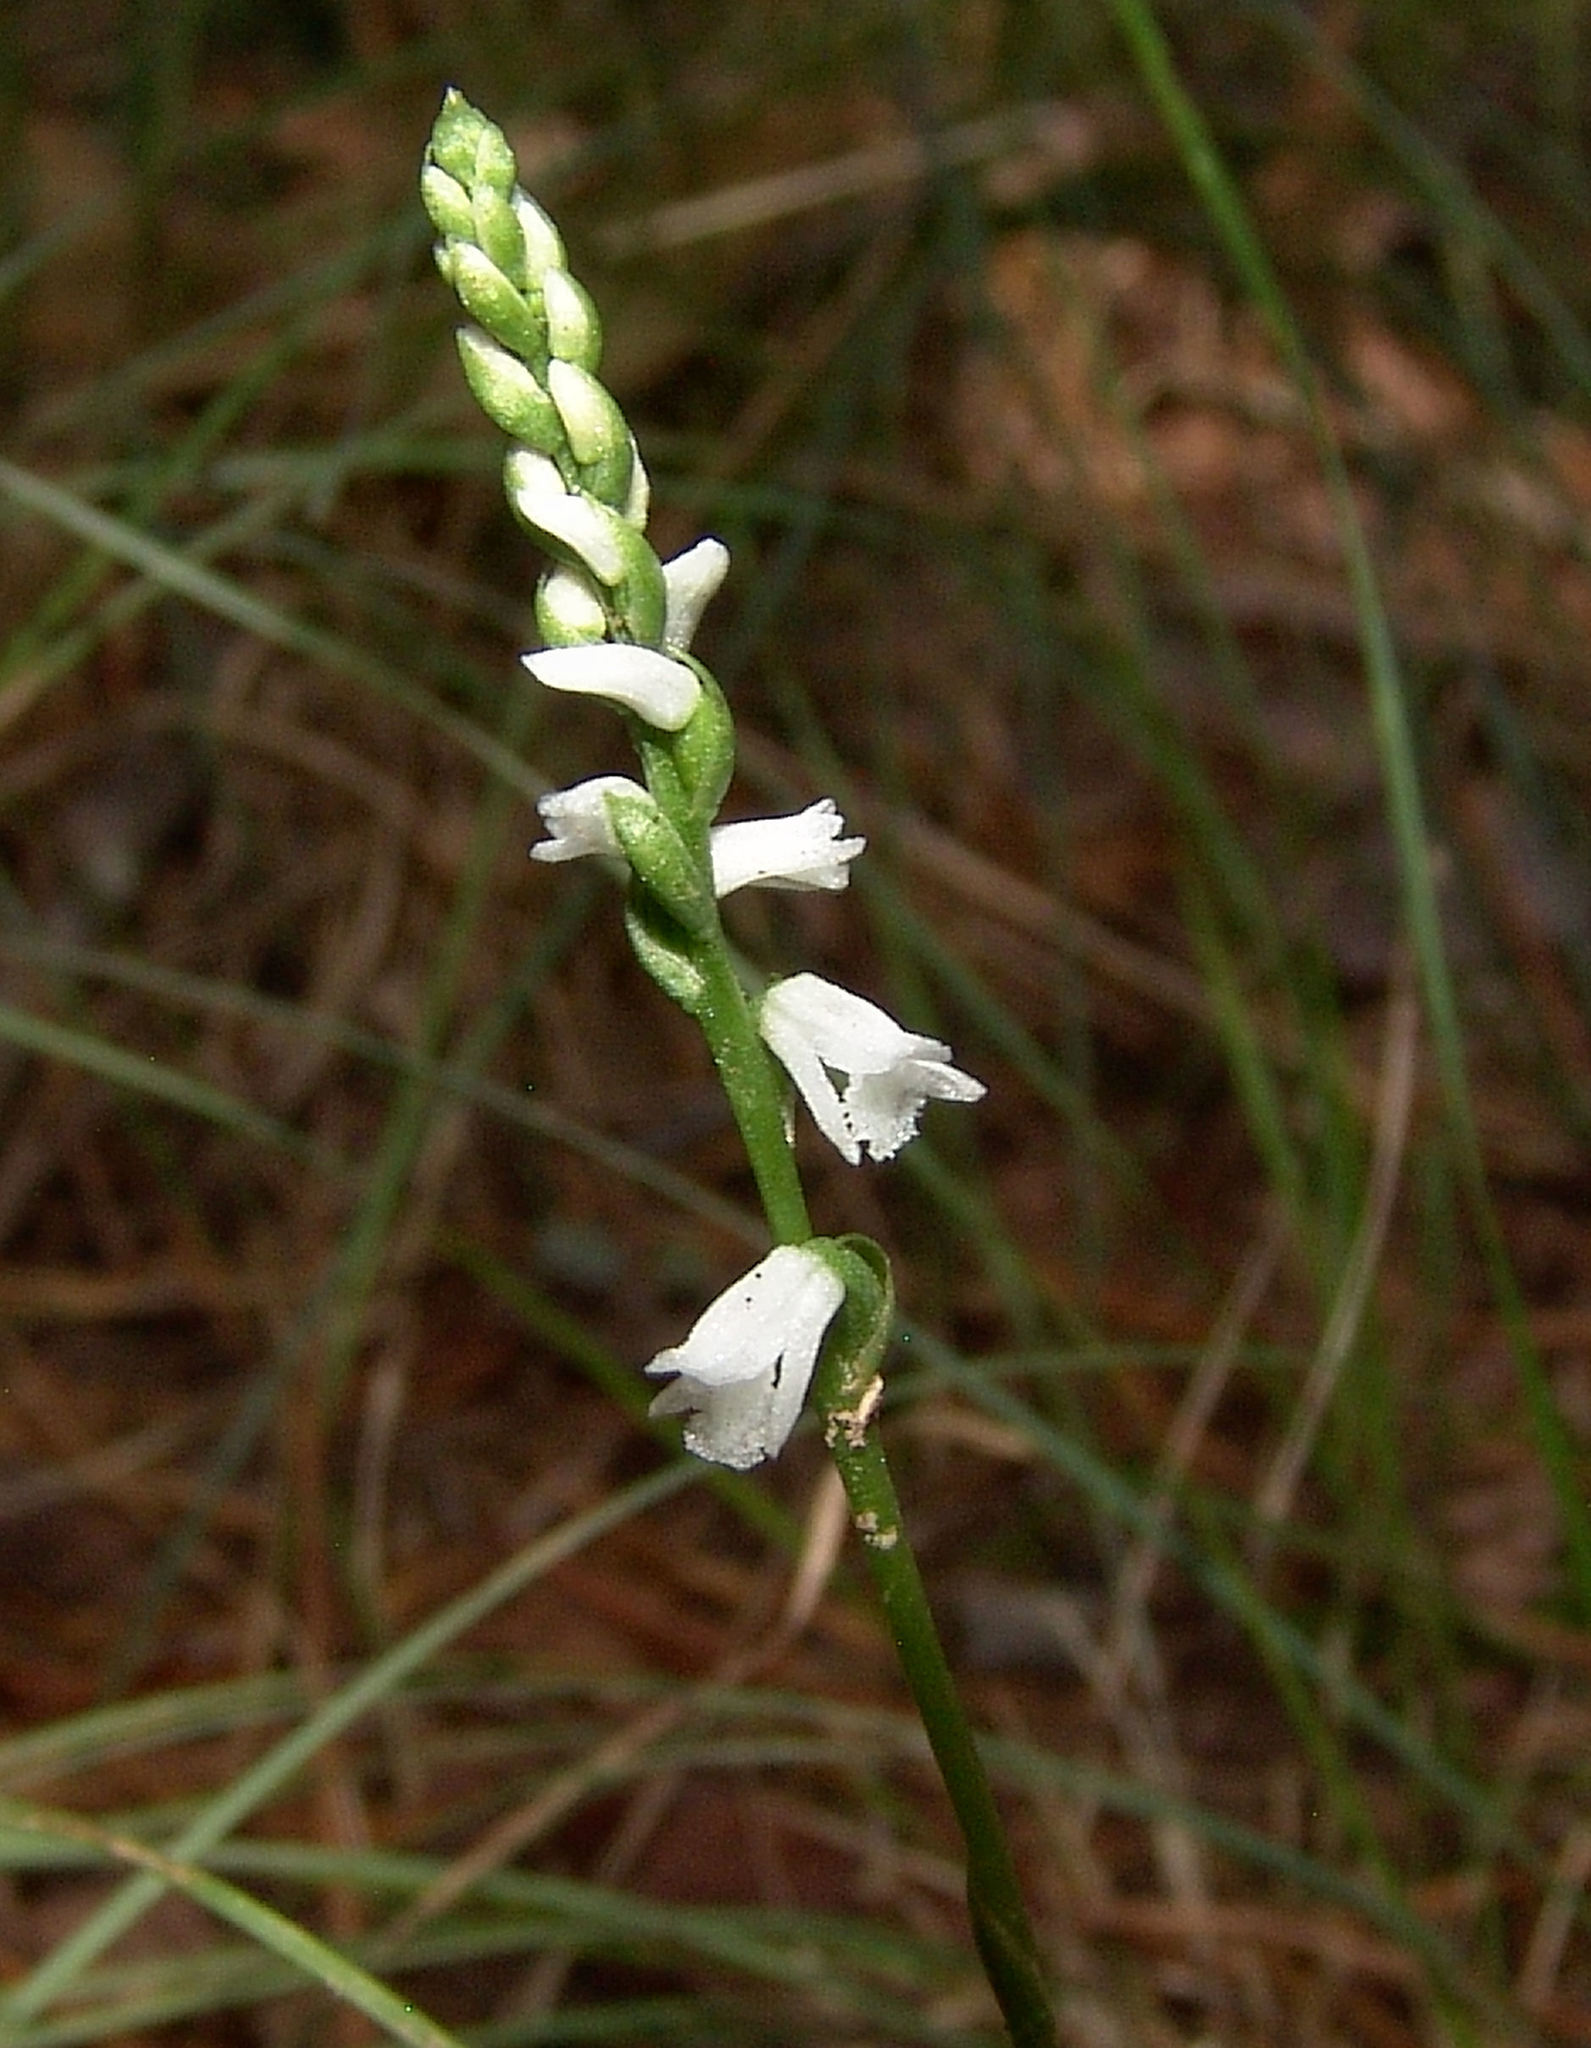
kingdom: Plantae
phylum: Tracheophyta
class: Liliopsida
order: Asparagales
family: Orchidaceae
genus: Spiranthes
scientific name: Spiranthes tuberosa
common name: Little ladies'-tresses
